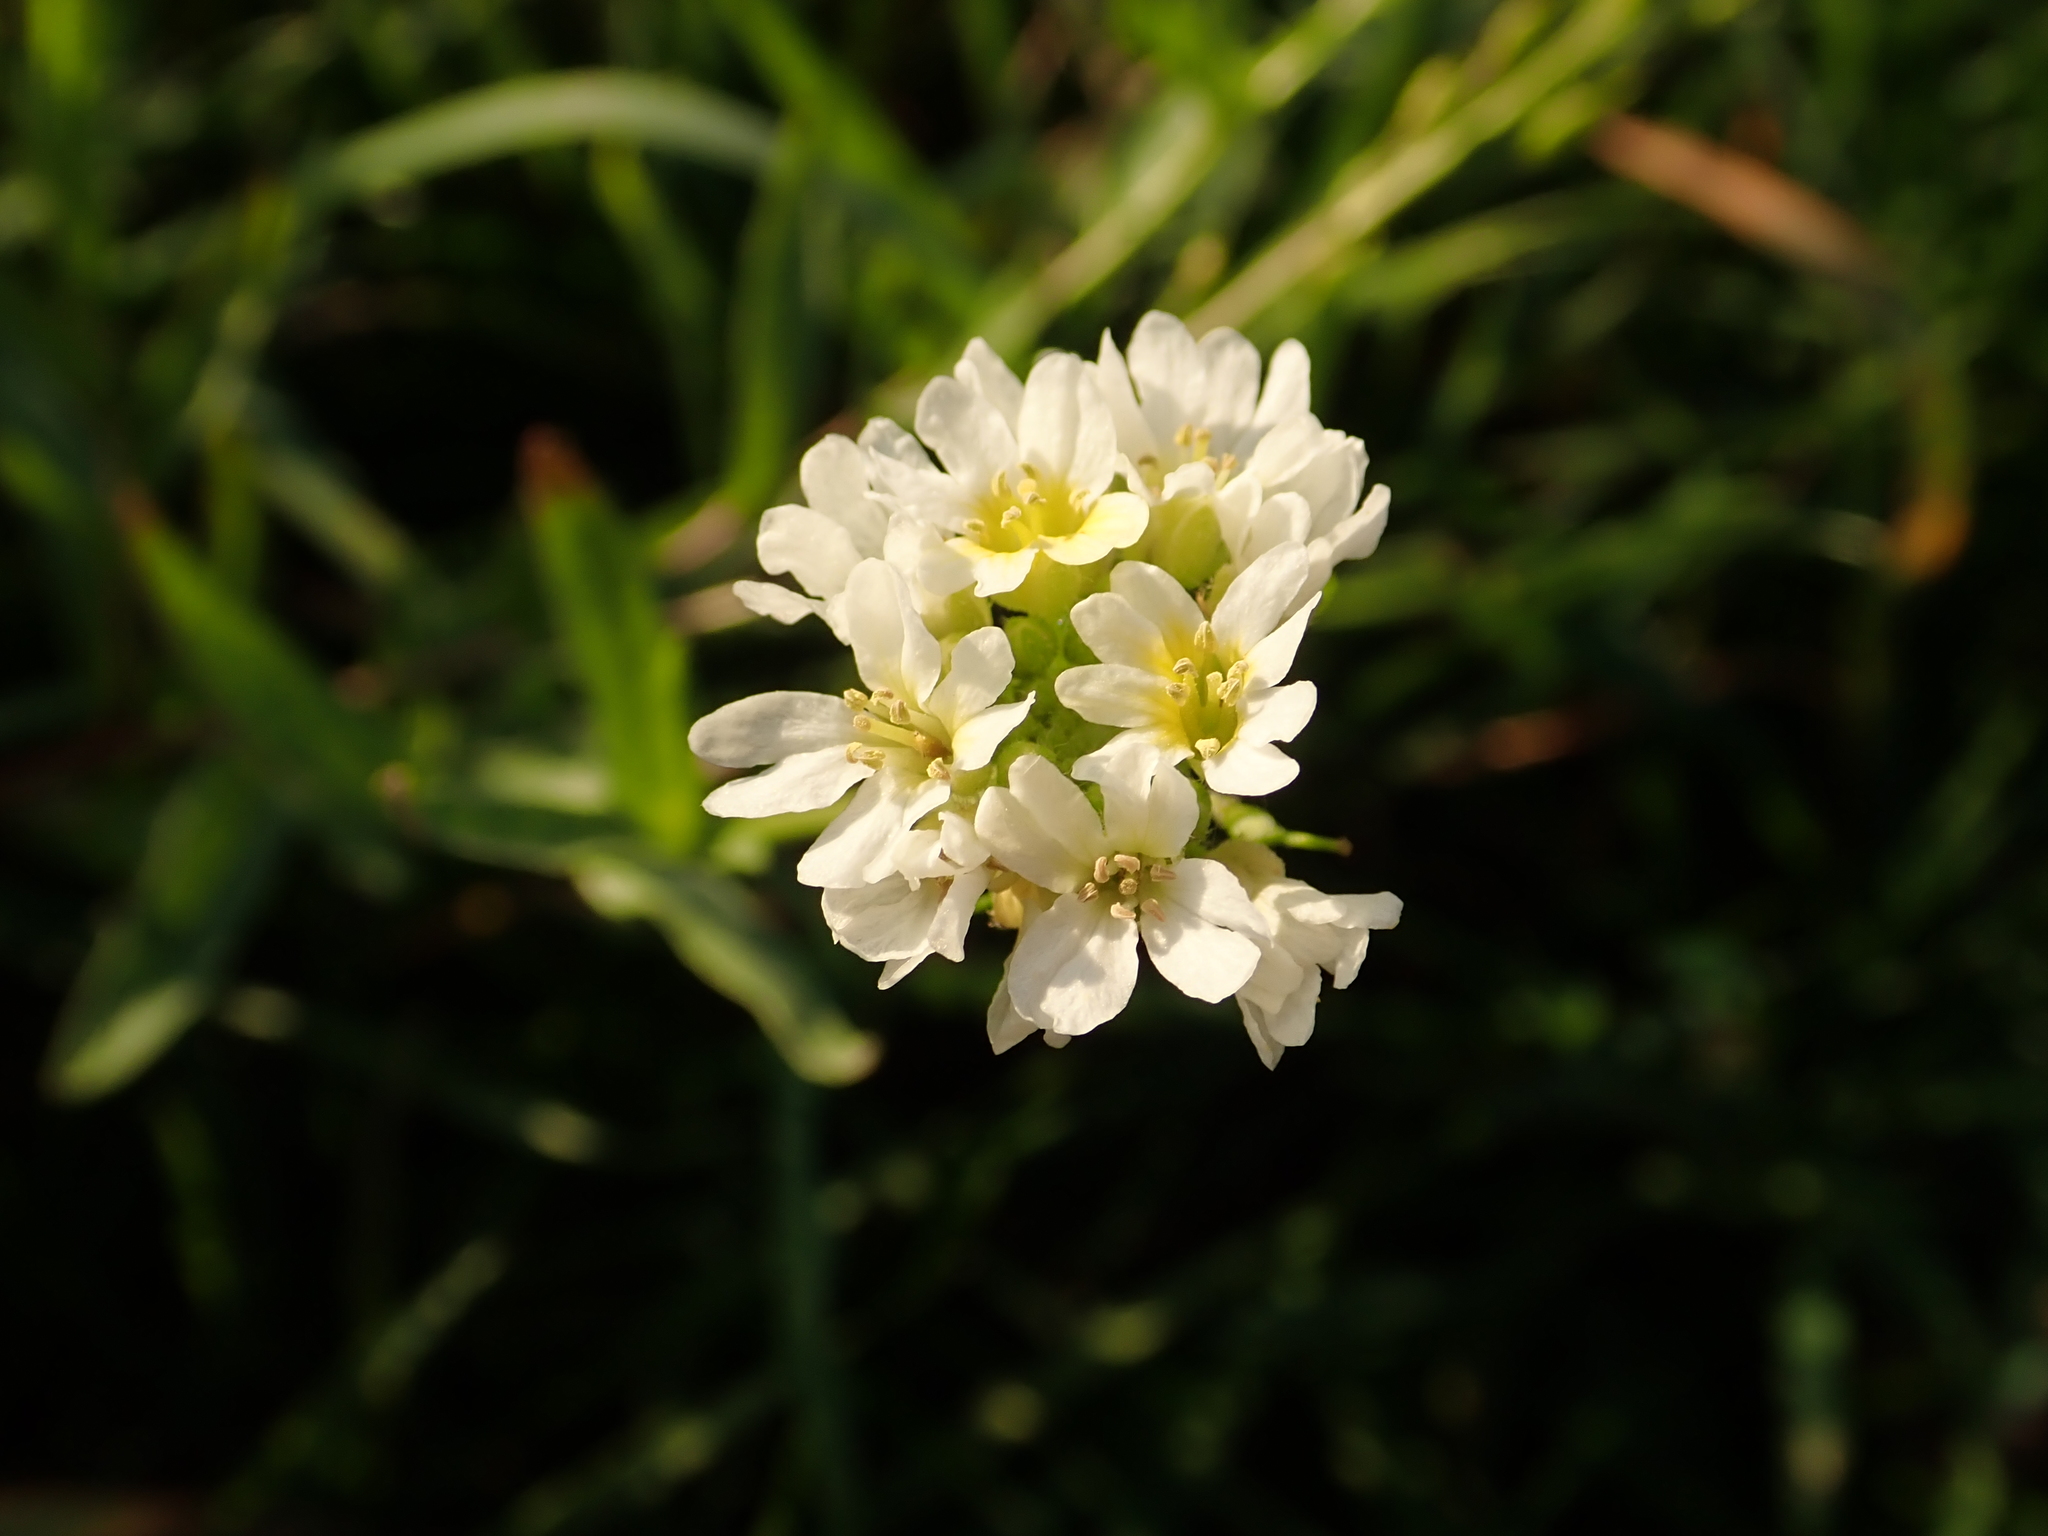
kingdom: Plantae
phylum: Tracheophyta
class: Magnoliopsida
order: Brassicales
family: Brassicaceae
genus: Berteroa
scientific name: Berteroa incana
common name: Hoary alison
